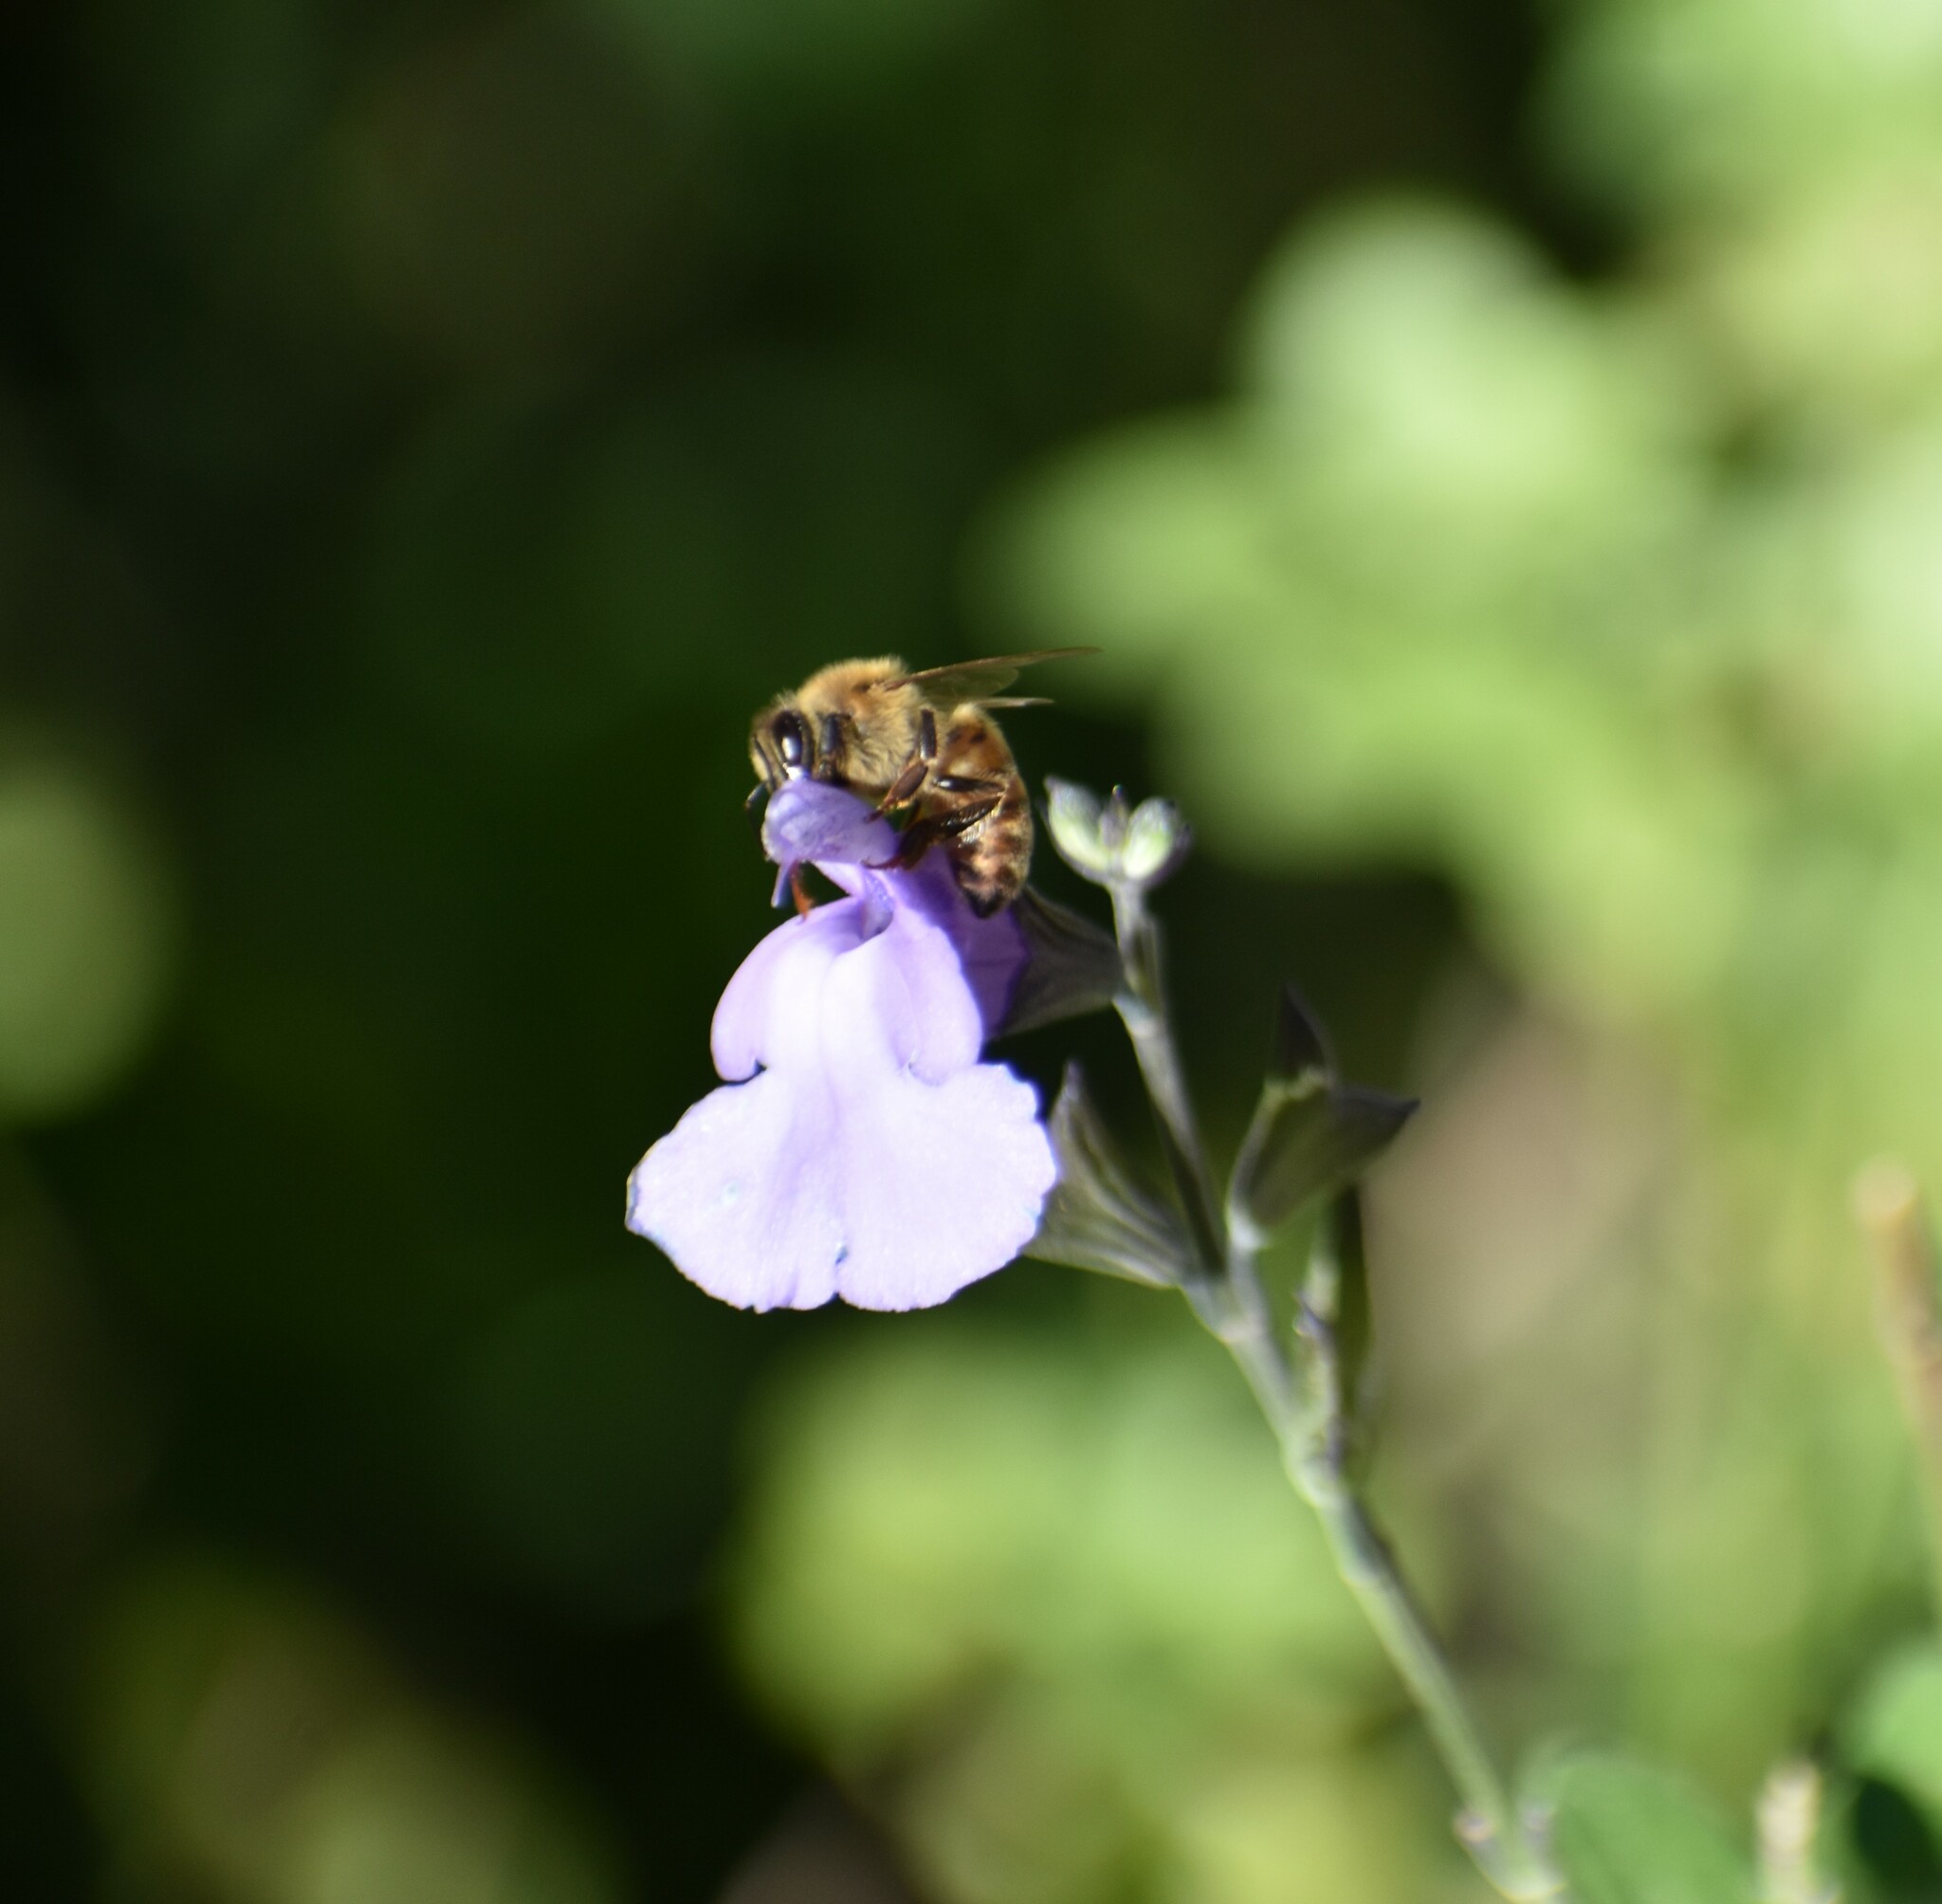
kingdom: Animalia
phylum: Arthropoda
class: Insecta
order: Hymenoptera
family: Apidae
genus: Apis
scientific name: Apis mellifera
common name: Honey bee
